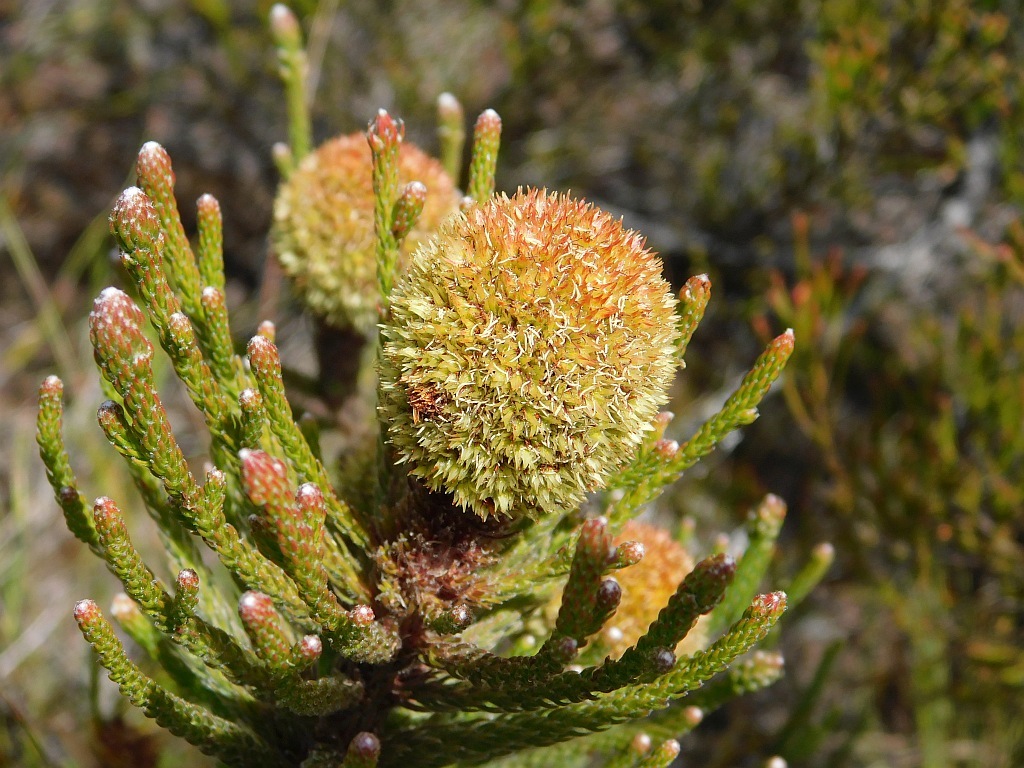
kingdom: Plantae
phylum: Tracheophyta
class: Magnoliopsida
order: Bruniales
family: Bruniaceae
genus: Brunia
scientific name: Brunia fragarioides
